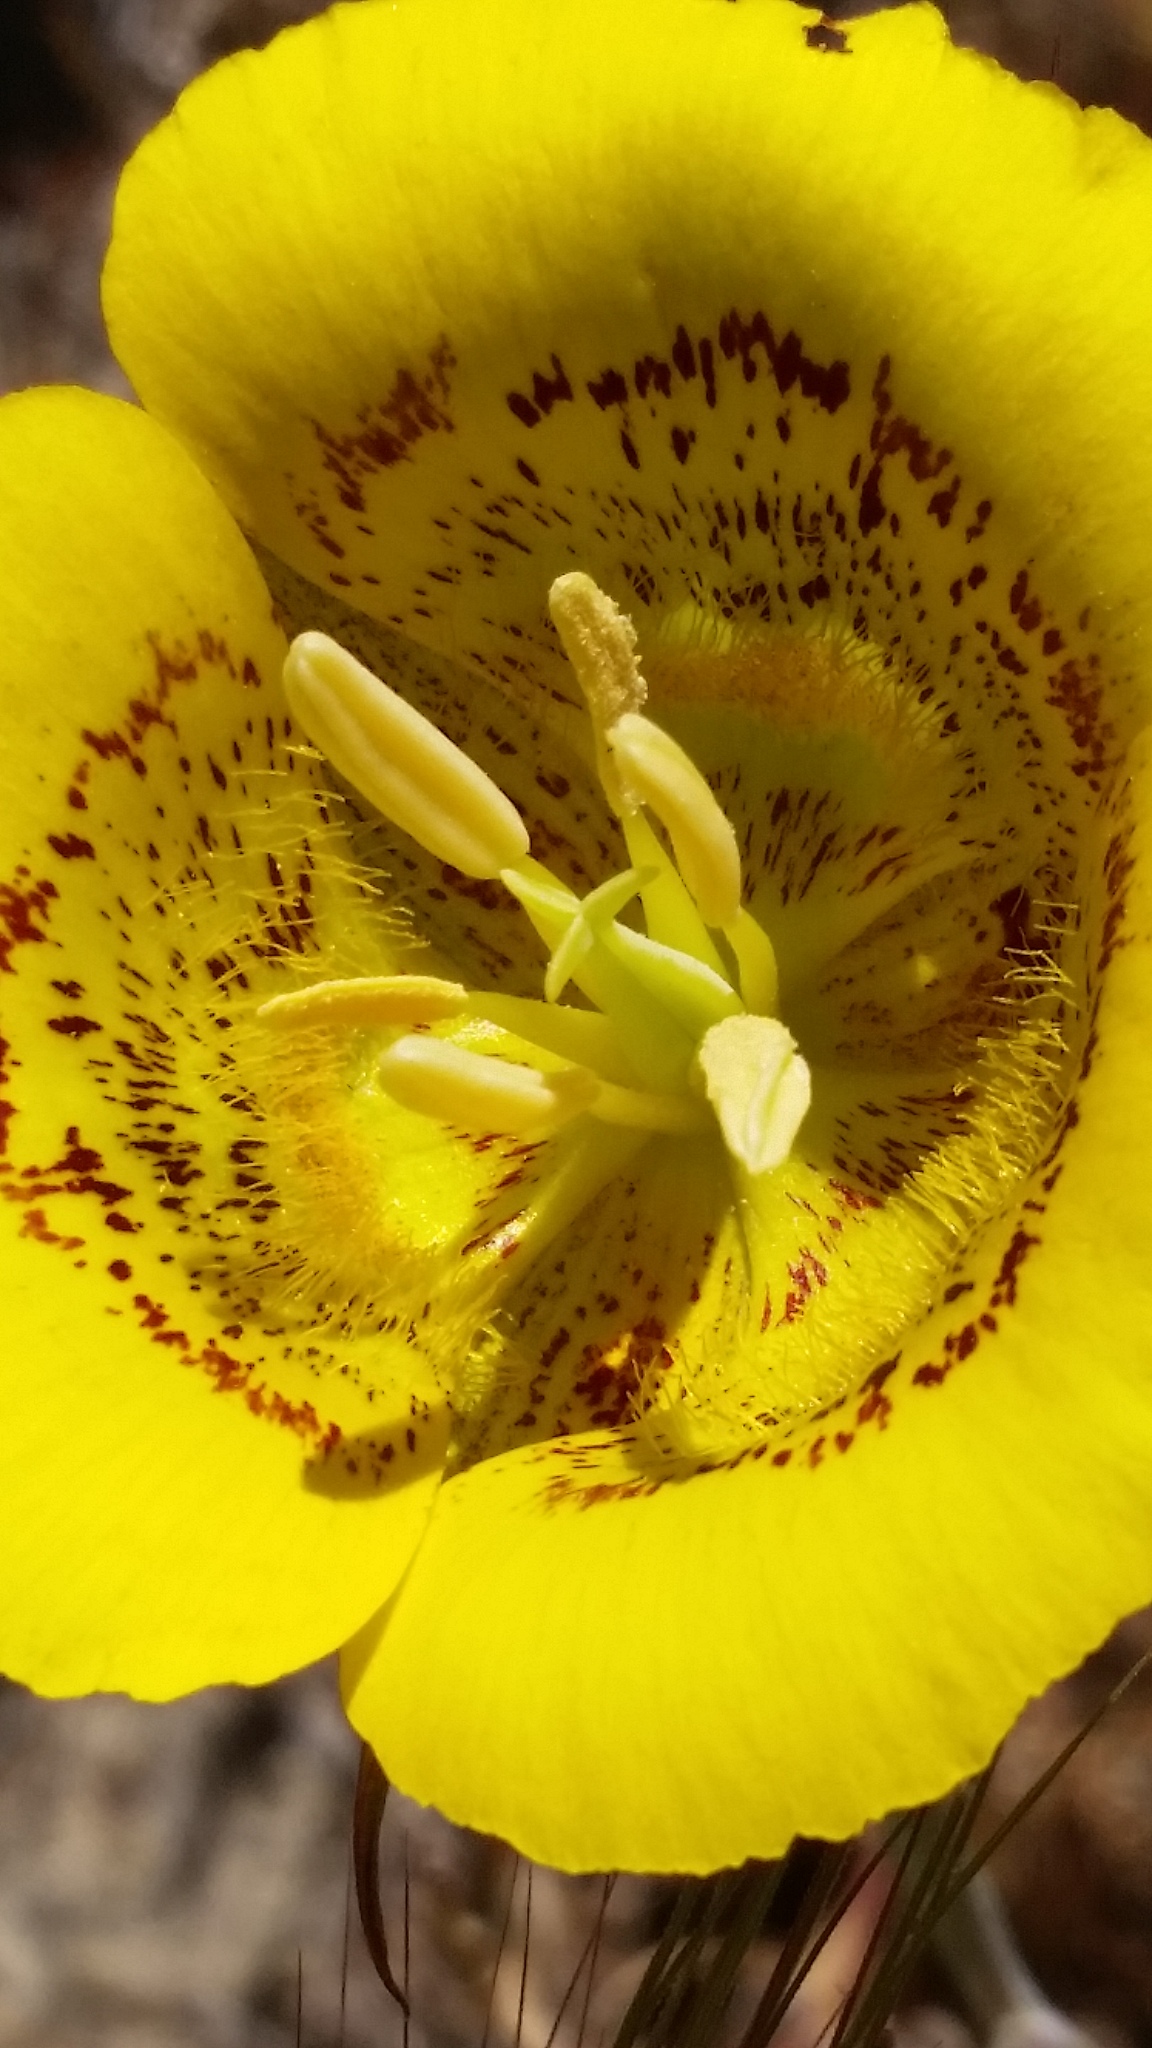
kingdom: Plantae
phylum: Tracheophyta
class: Liliopsida
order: Liliales
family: Liliaceae
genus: Calochortus
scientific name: Calochortus luteus
